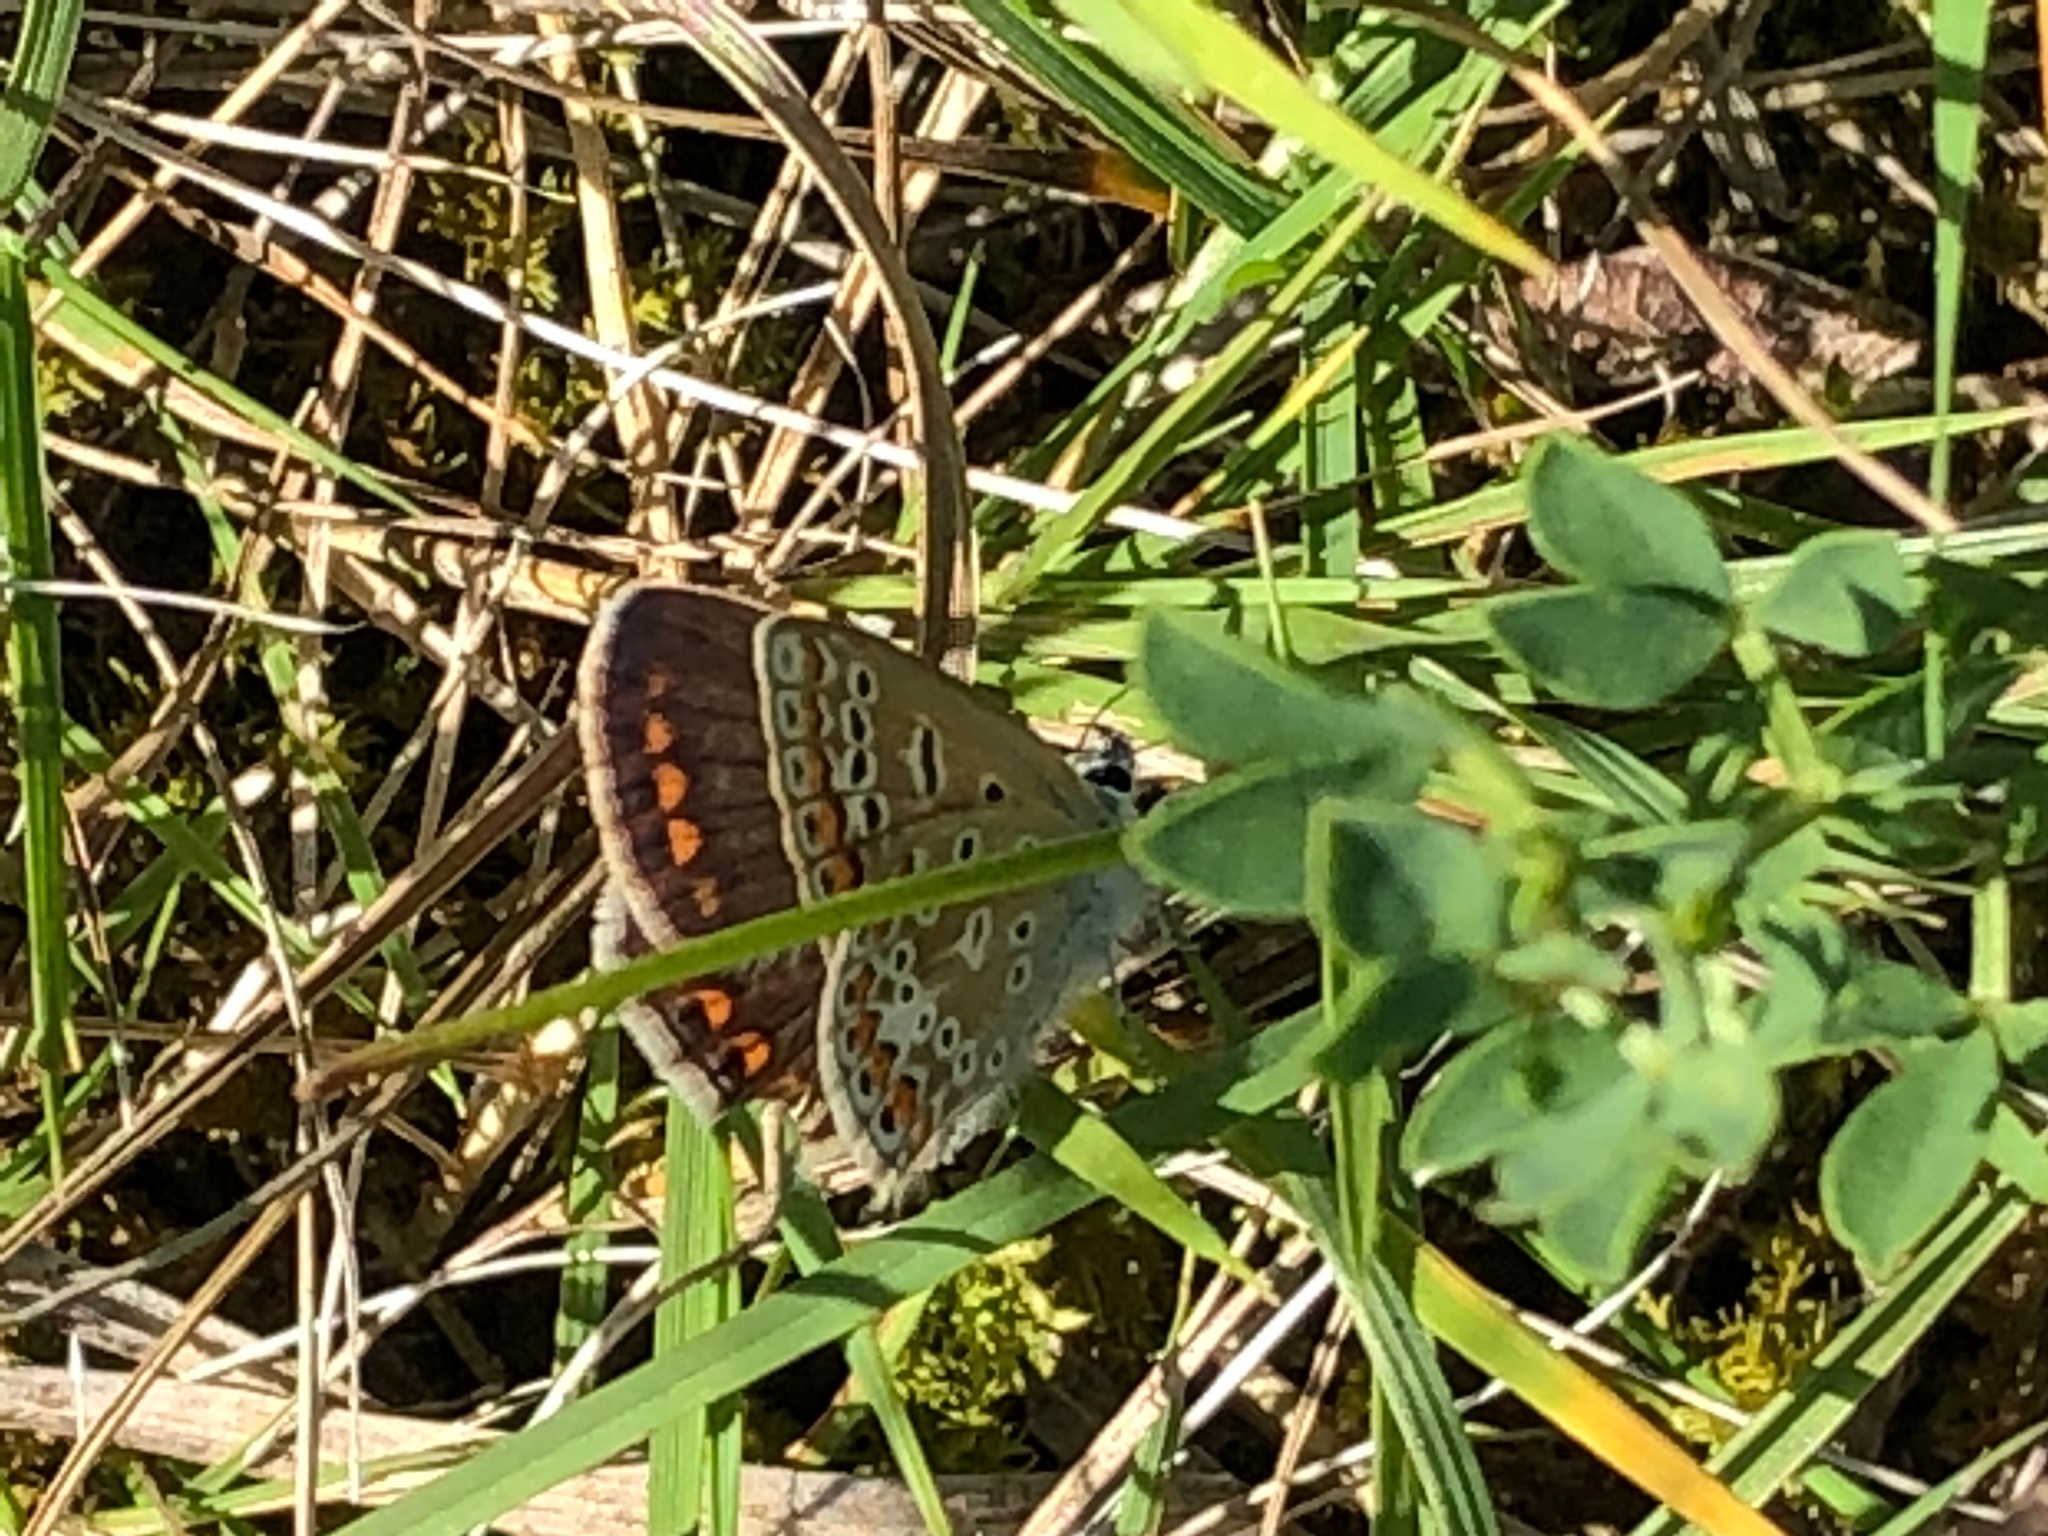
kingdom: Animalia
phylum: Arthropoda
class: Insecta
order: Lepidoptera
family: Lycaenidae
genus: Polyommatus
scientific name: Polyommatus icarus
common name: Common blue
